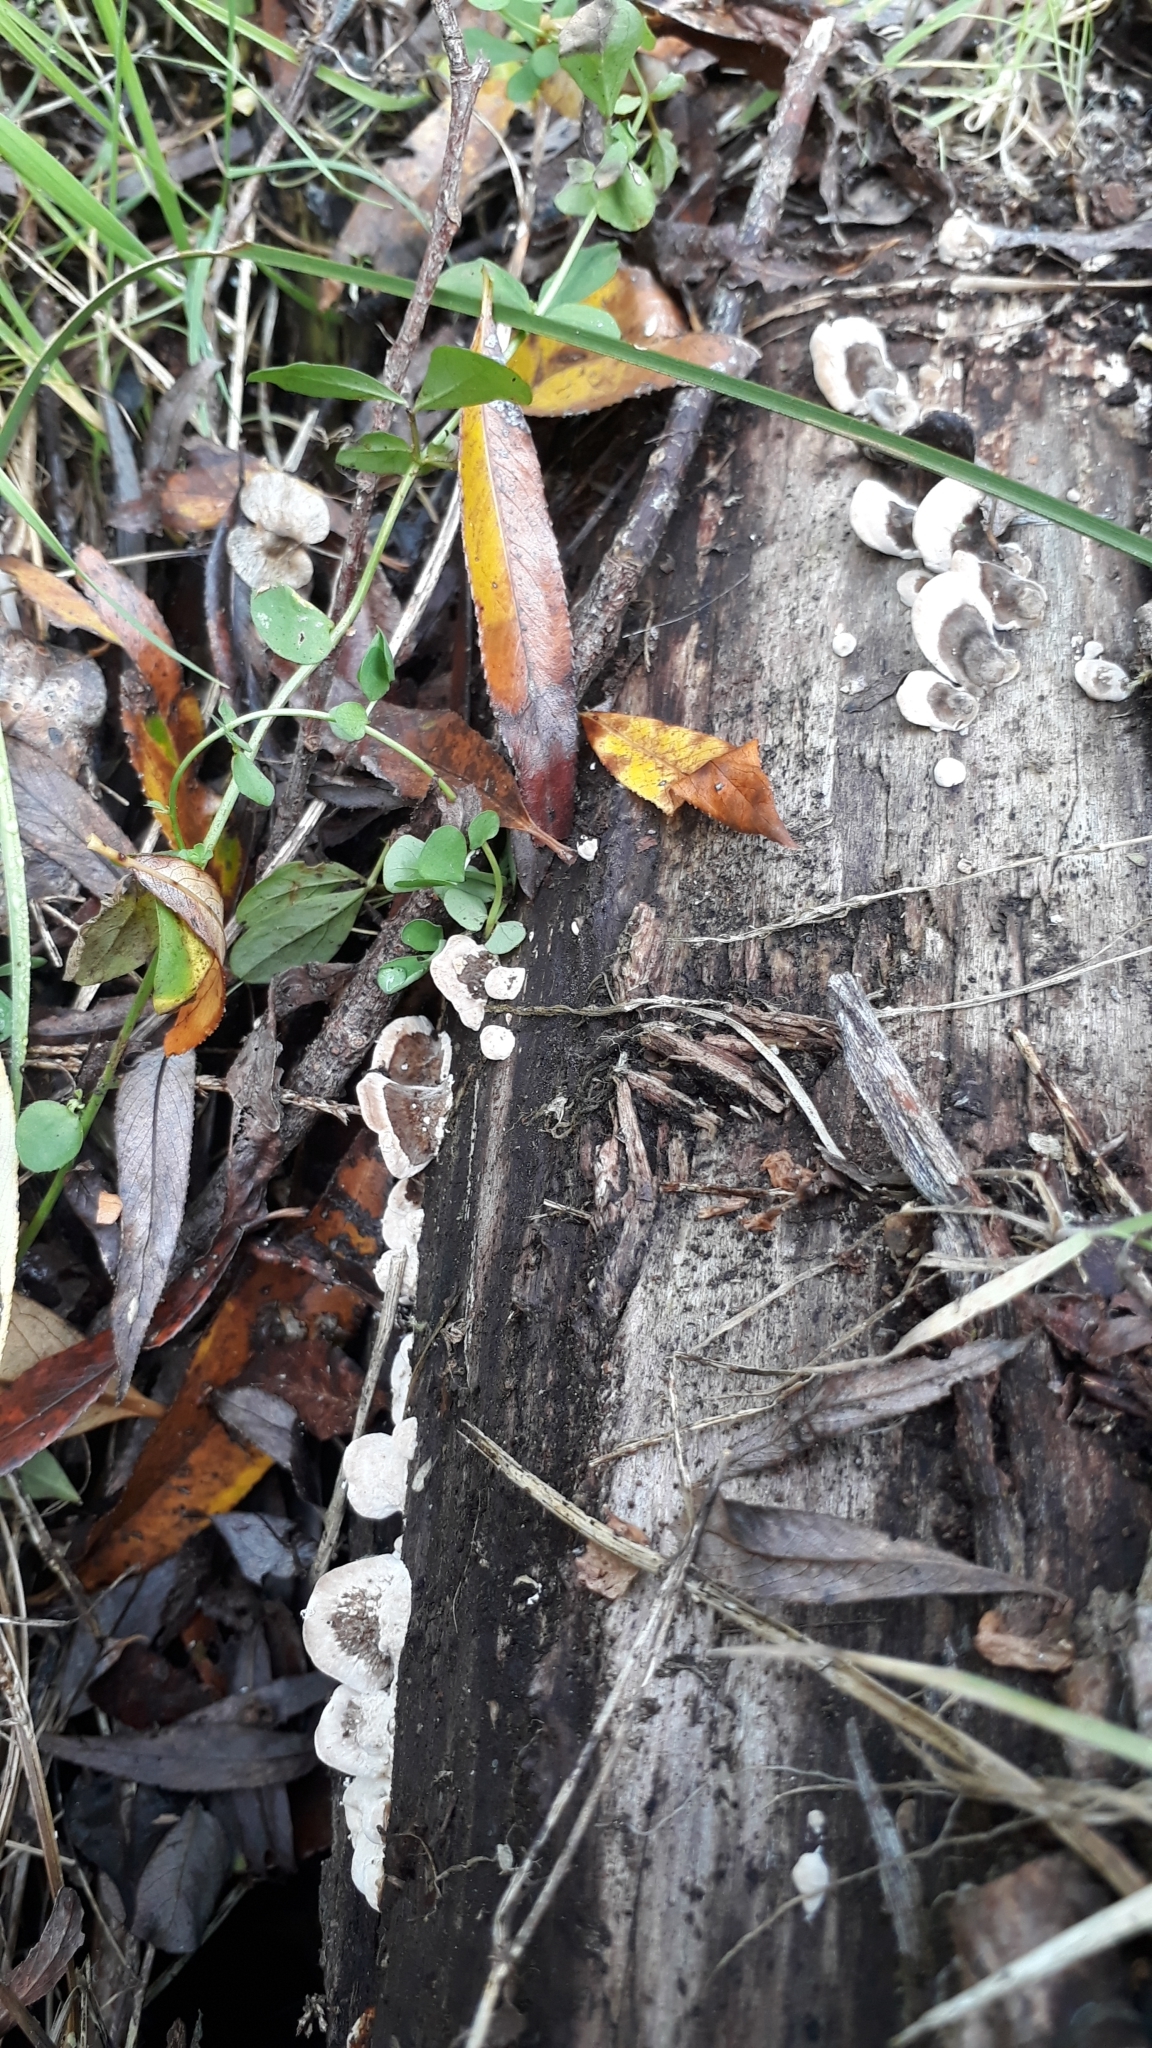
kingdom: Fungi
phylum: Basidiomycota
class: Agaricomycetes
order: Polyporales
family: Polyporaceae
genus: Trametes
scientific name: Trametes versicolor
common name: Turkeytail
